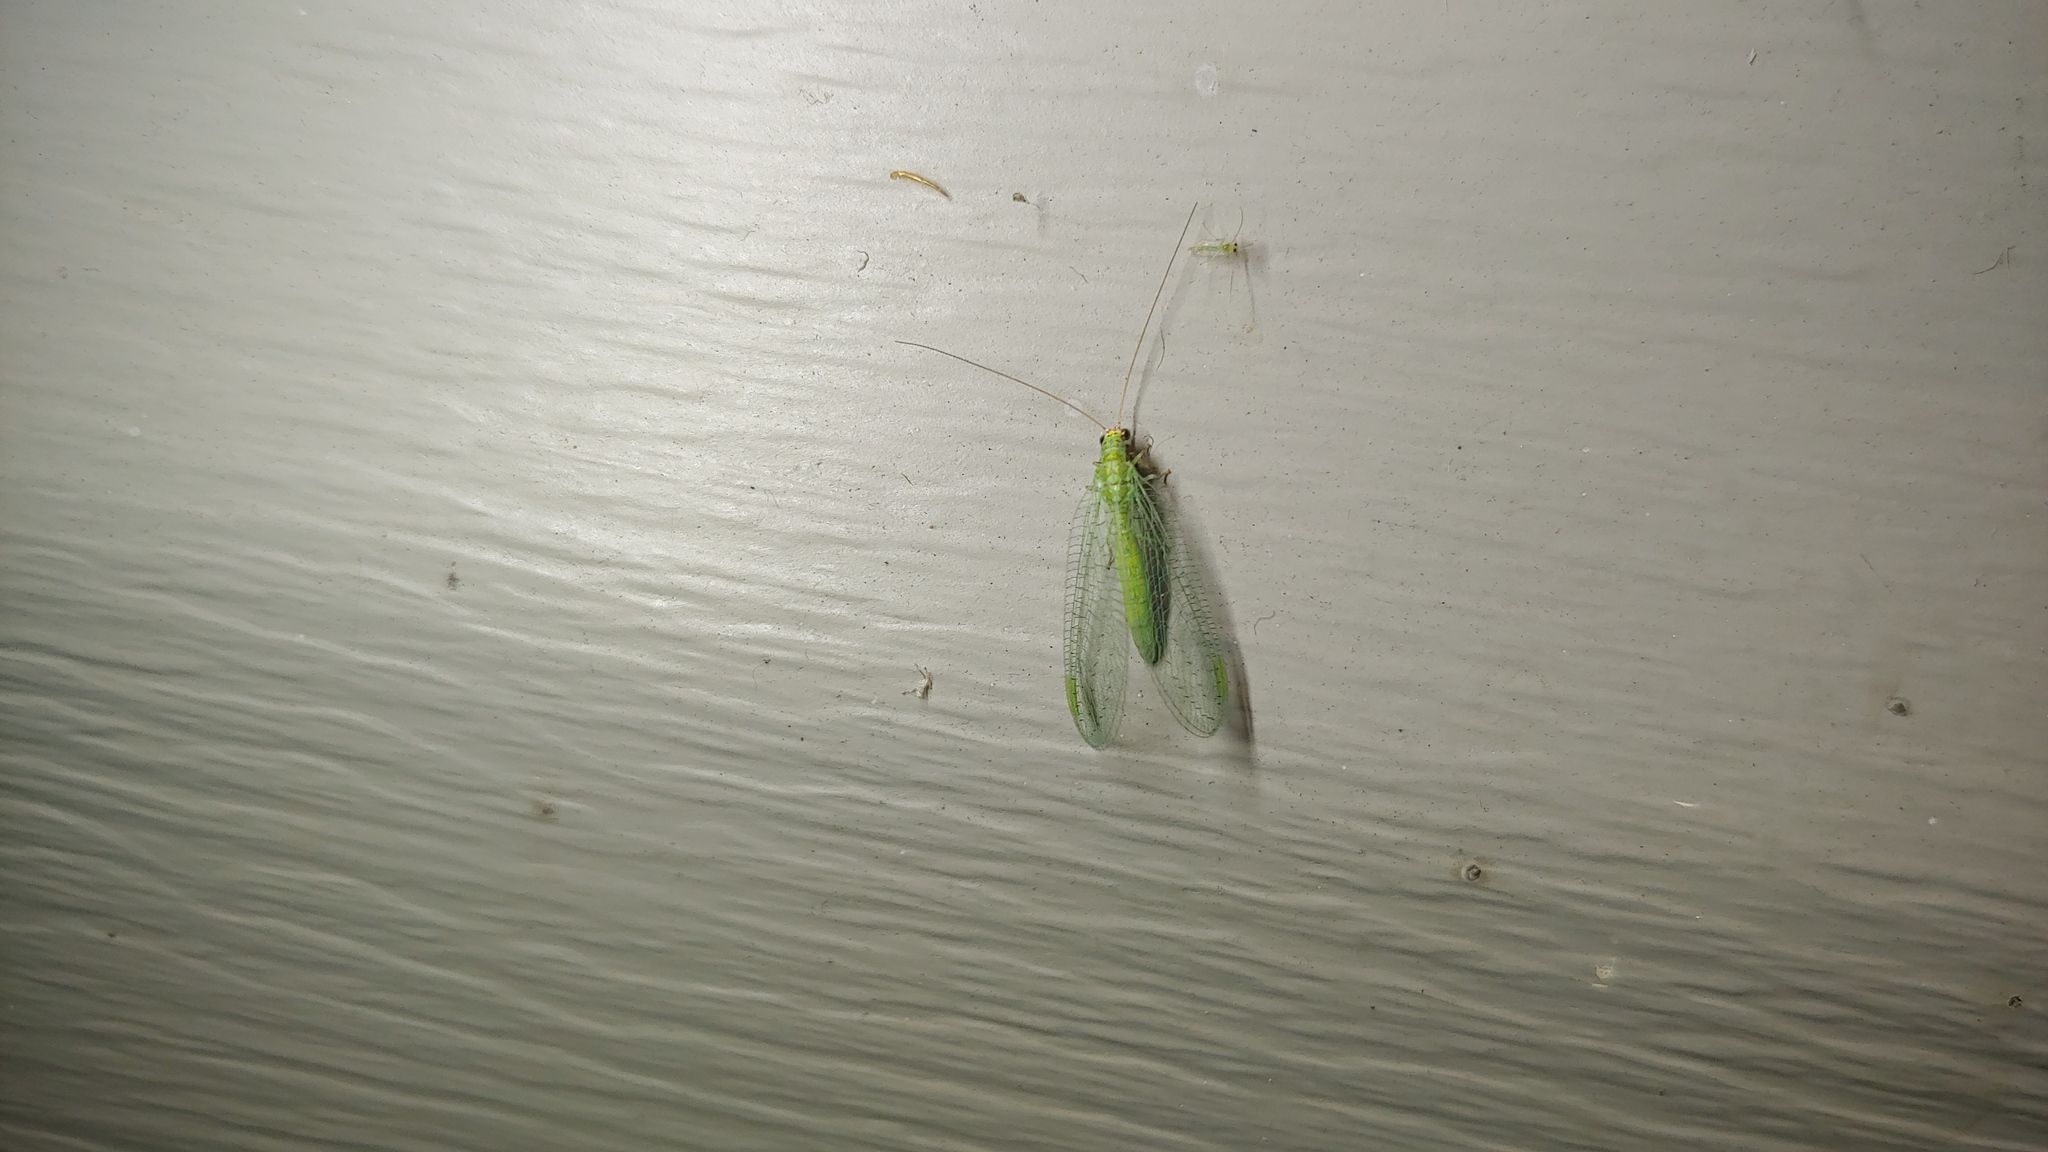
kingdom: Animalia
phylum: Arthropoda
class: Insecta
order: Neuroptera
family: Chrysopidae
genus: Chrysopa
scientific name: Chrysopa oculata
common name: Golden-eyed lacewing
